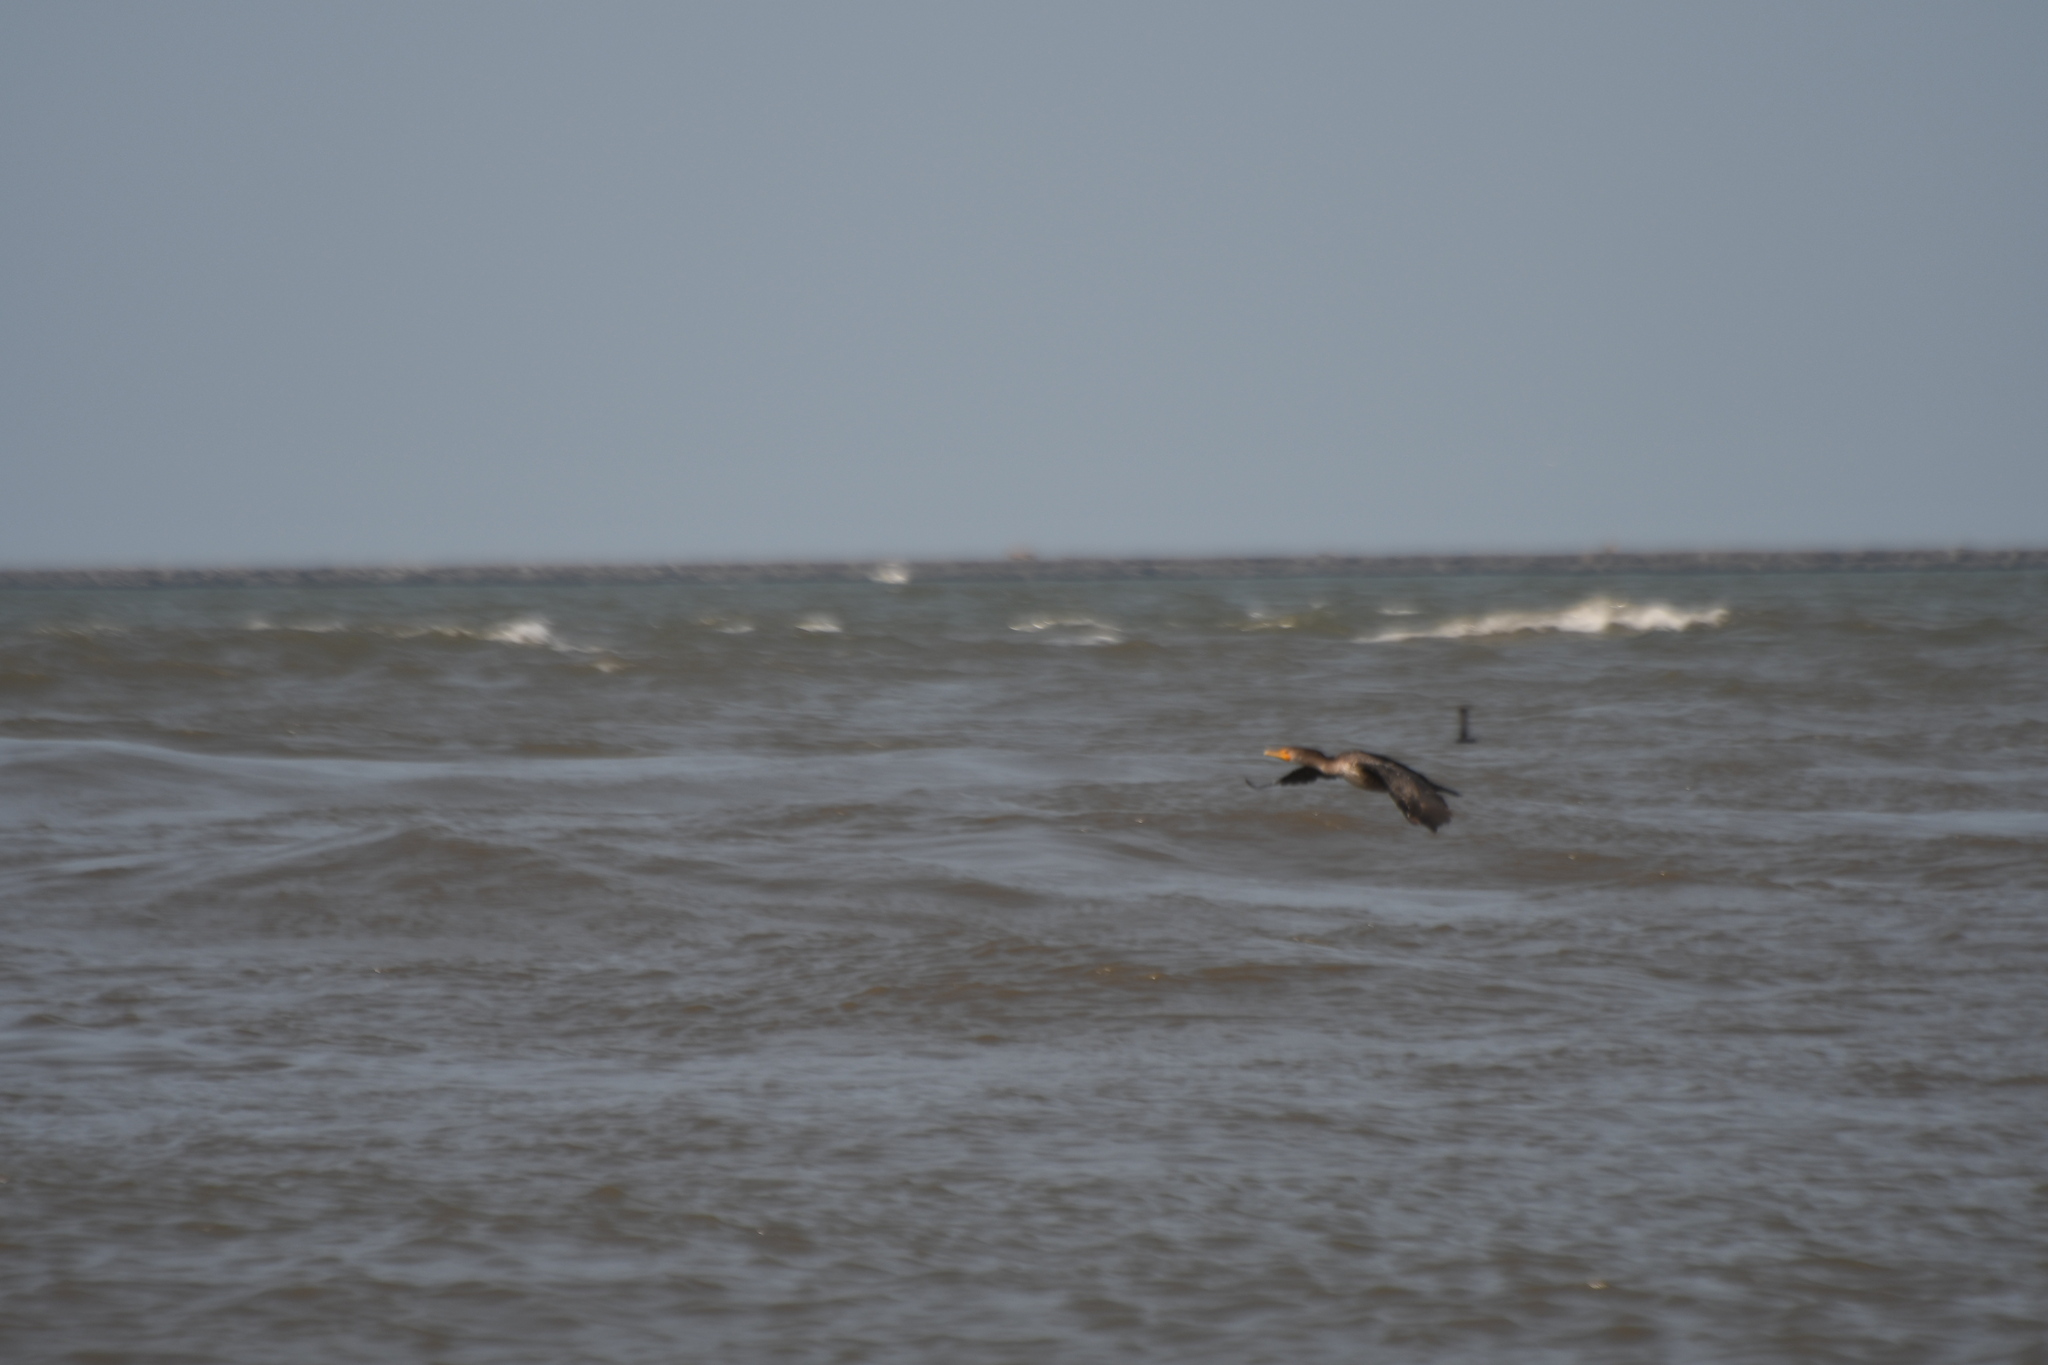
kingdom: Animalia
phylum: Chordata
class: Aves
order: Suliformes
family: Phalacrocoracidae
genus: Phalacrocorax
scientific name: Phalacrocorax auritus
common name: Double-crested cormorant
